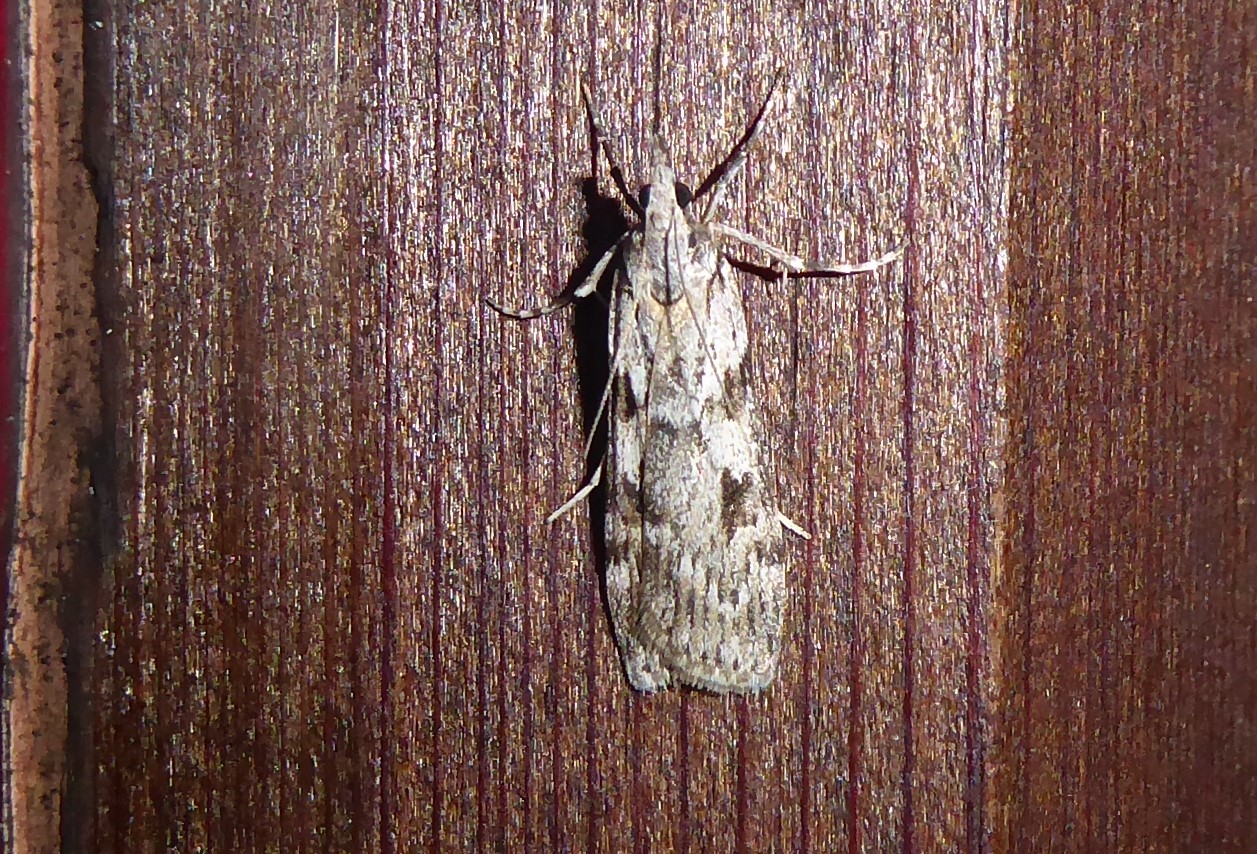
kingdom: Animalia
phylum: Arthropoda
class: Insecta
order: Lepidoptera
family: Crambidae
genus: Scoparia
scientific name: Scoparia halopis
